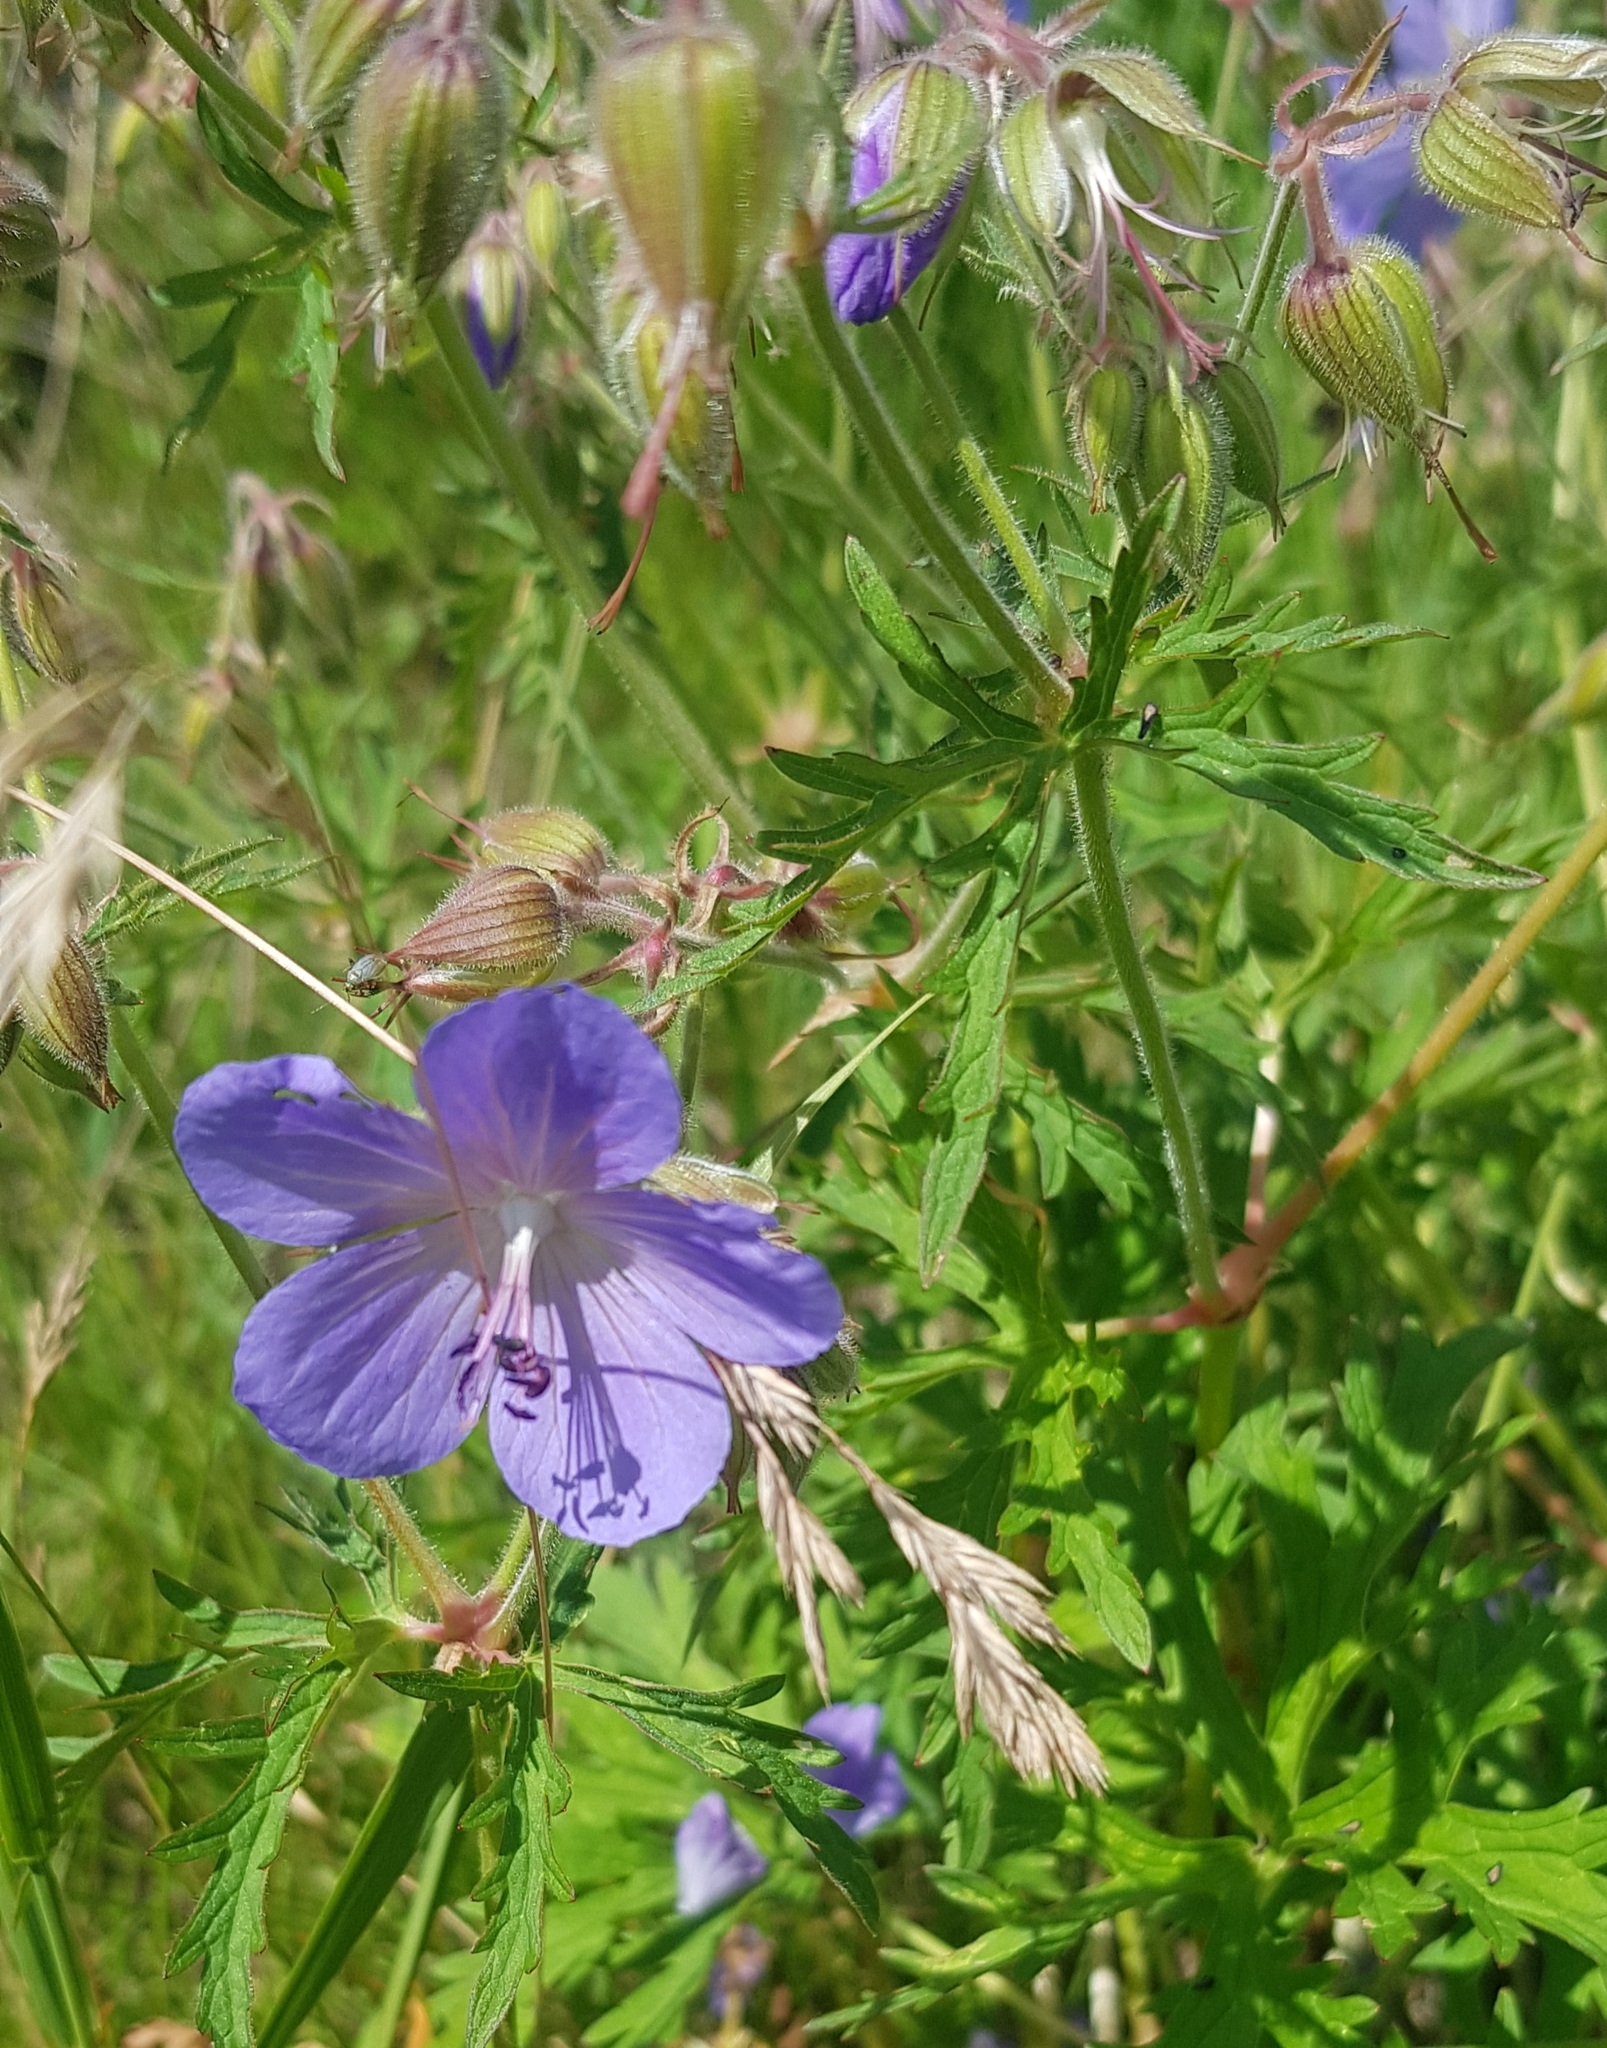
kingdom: Plantae
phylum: Tracheophyta
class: Magnoliopsida
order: Geraniales
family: Geraniaceae
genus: Geranium
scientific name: Geranium pratense
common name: Meadow crane's-bill
